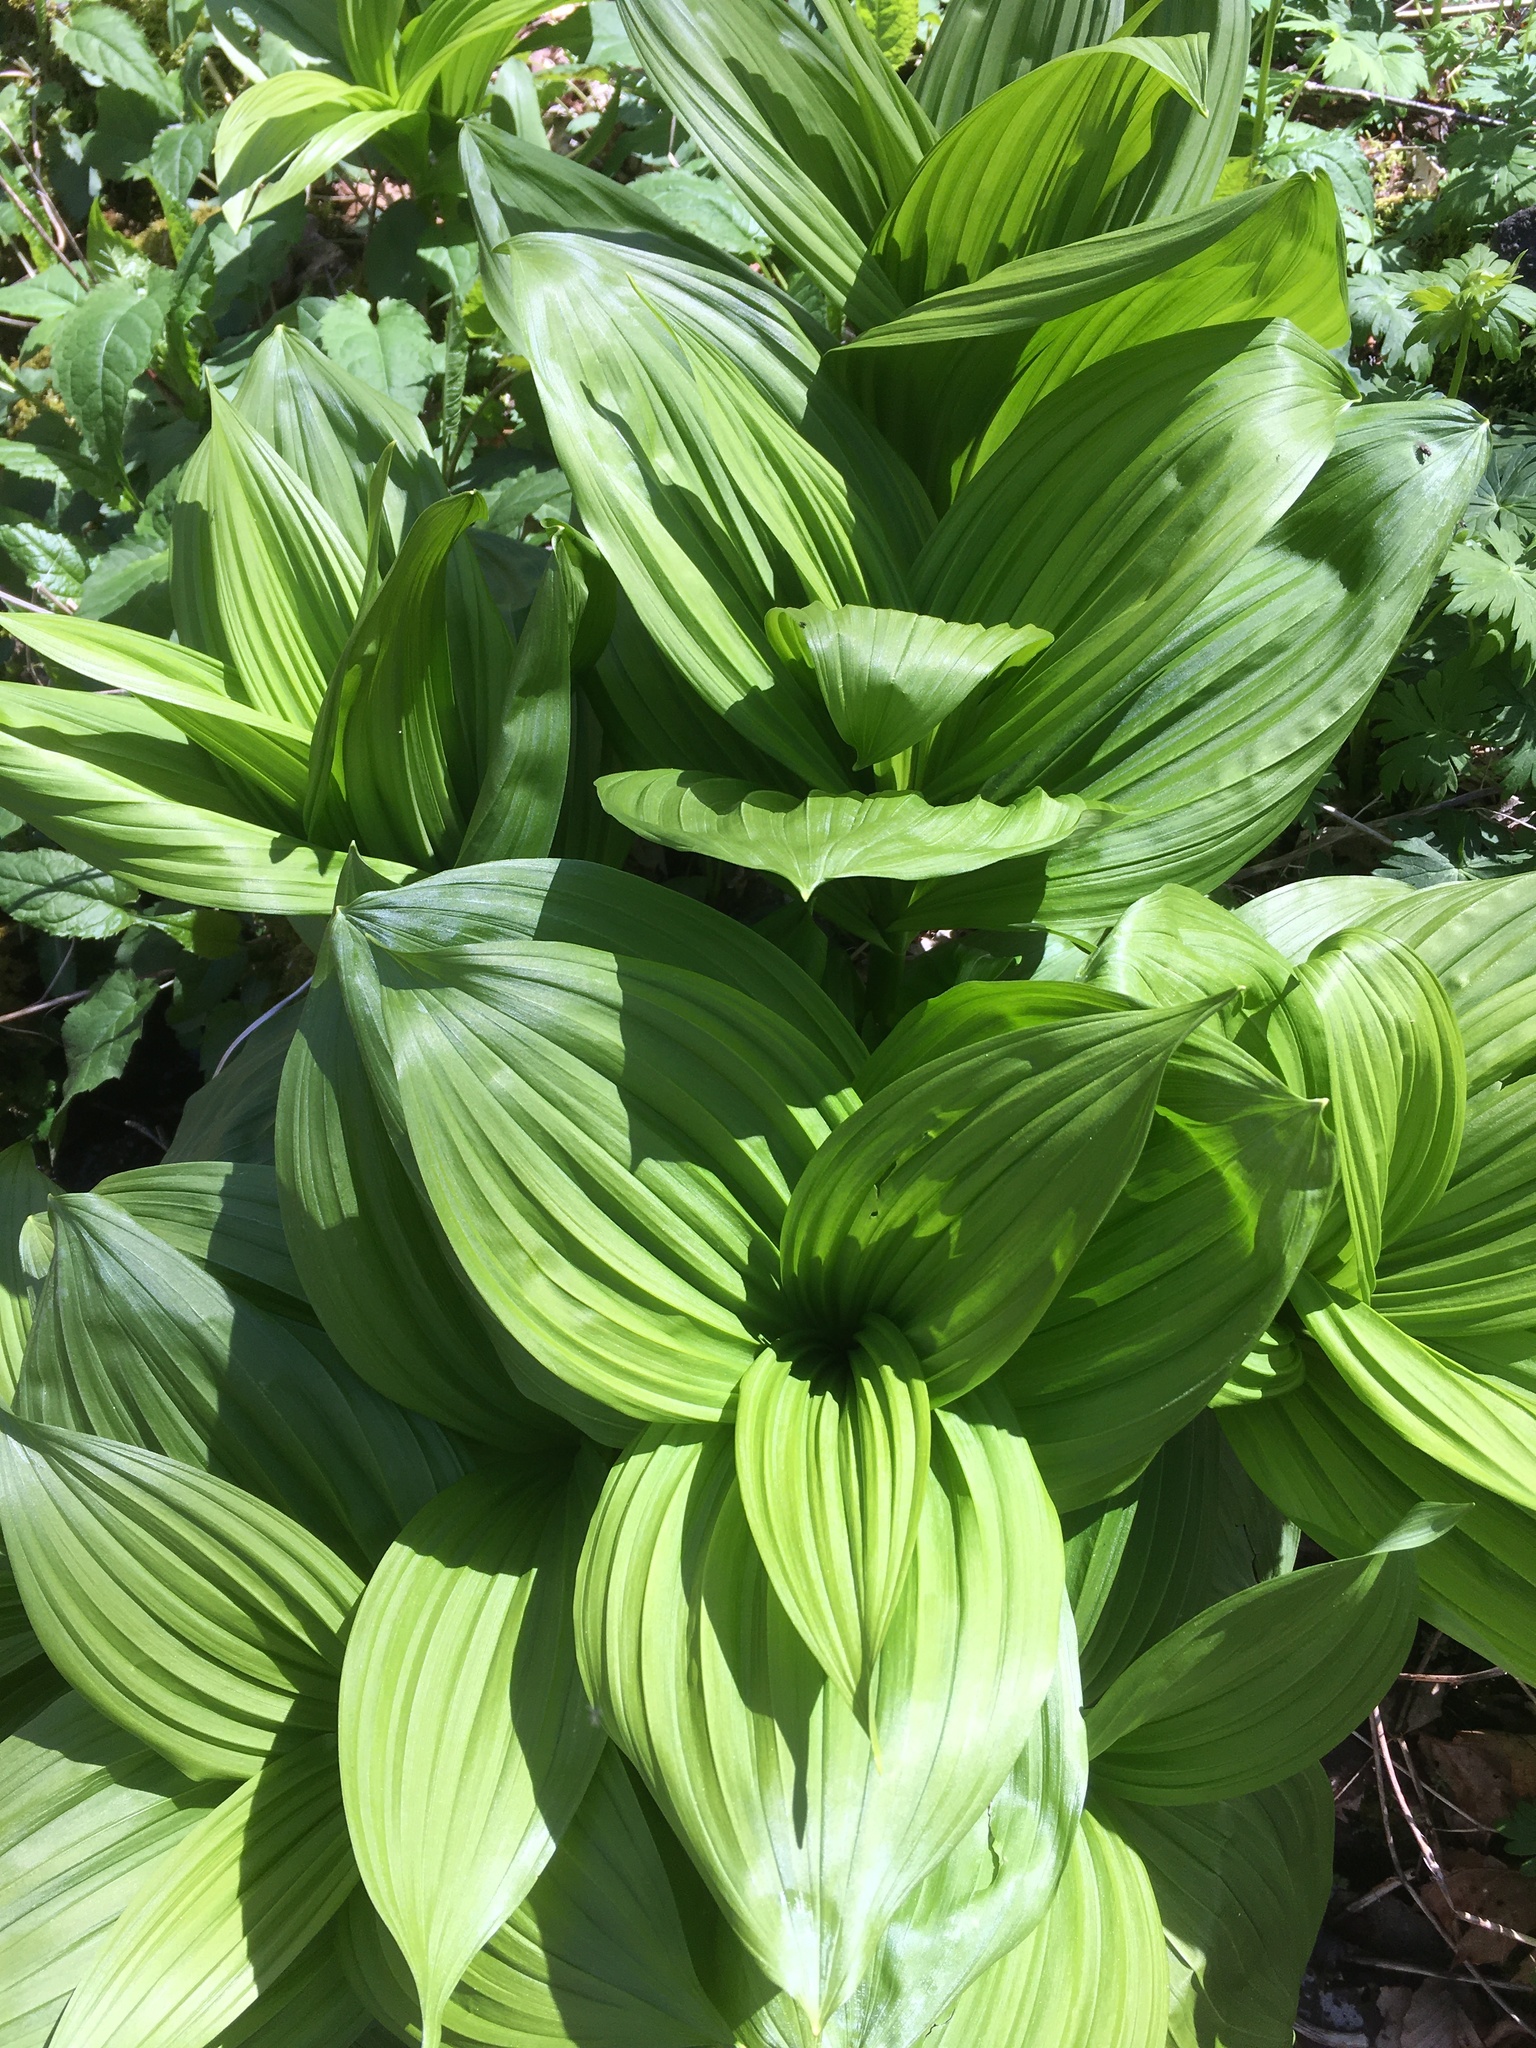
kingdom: Plantae
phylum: Tracheophyta
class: Liliopsida
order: Liliales
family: Melanthiaceae
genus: Veratrum
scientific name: Veratrum viride
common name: American false hellebore
